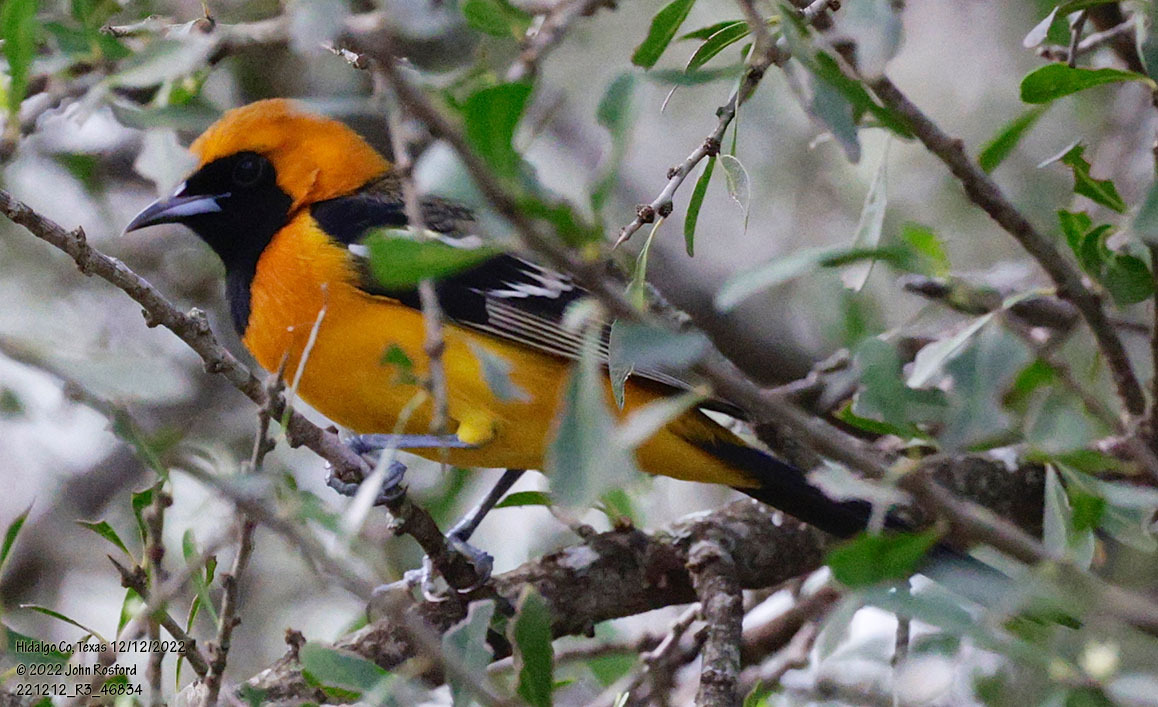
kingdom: Animalia
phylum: Chordata
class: Aves
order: Passeriformes
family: Icteridae
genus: Icterus
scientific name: Icterus cucullatus
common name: Hooded oriole
